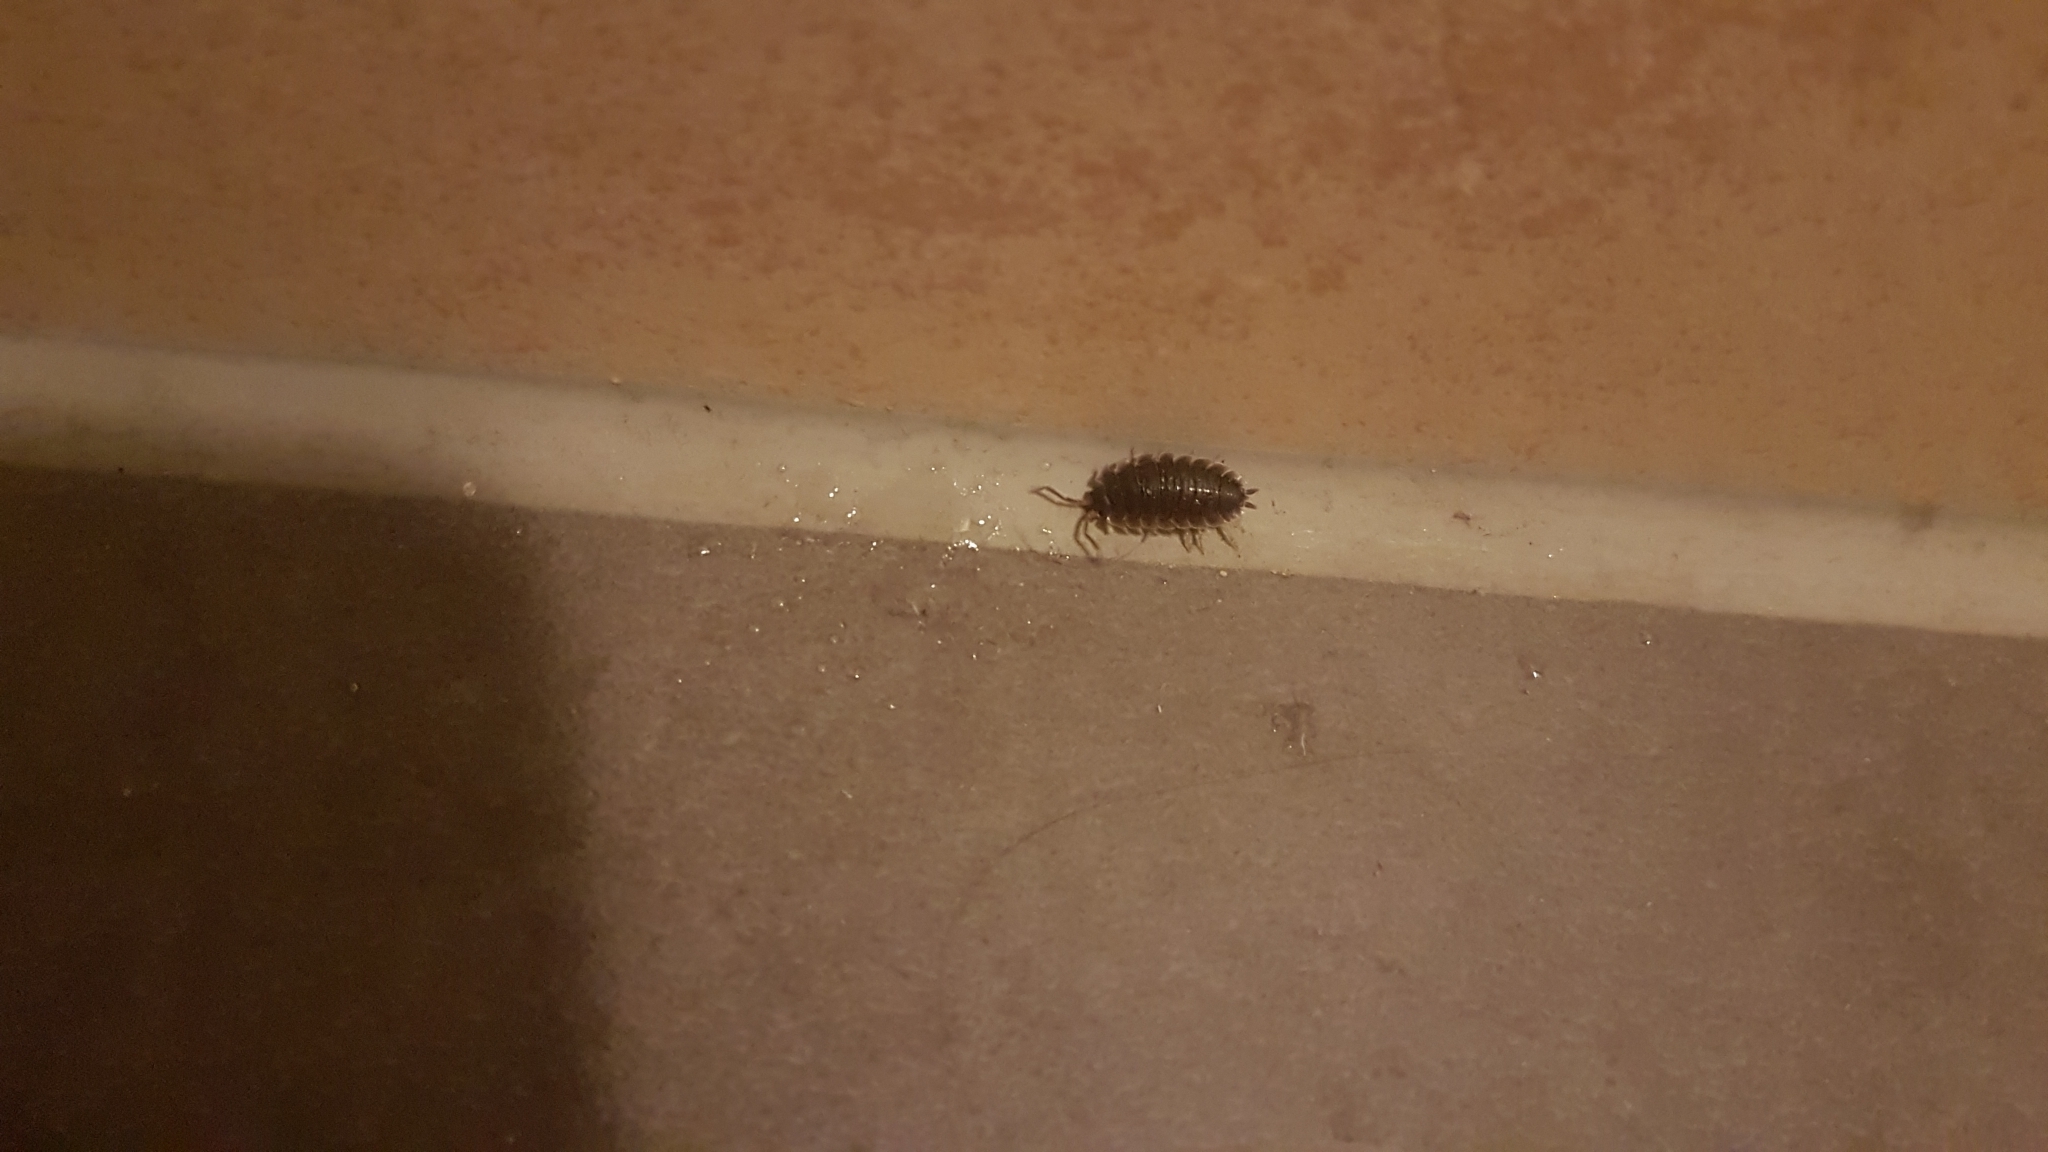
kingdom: Animalia
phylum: Arthropoda
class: Malacostraca
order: Isopoda
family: Porcellionidae
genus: Porcellio
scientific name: Porcellio scaber
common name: Common rough woodlouse
